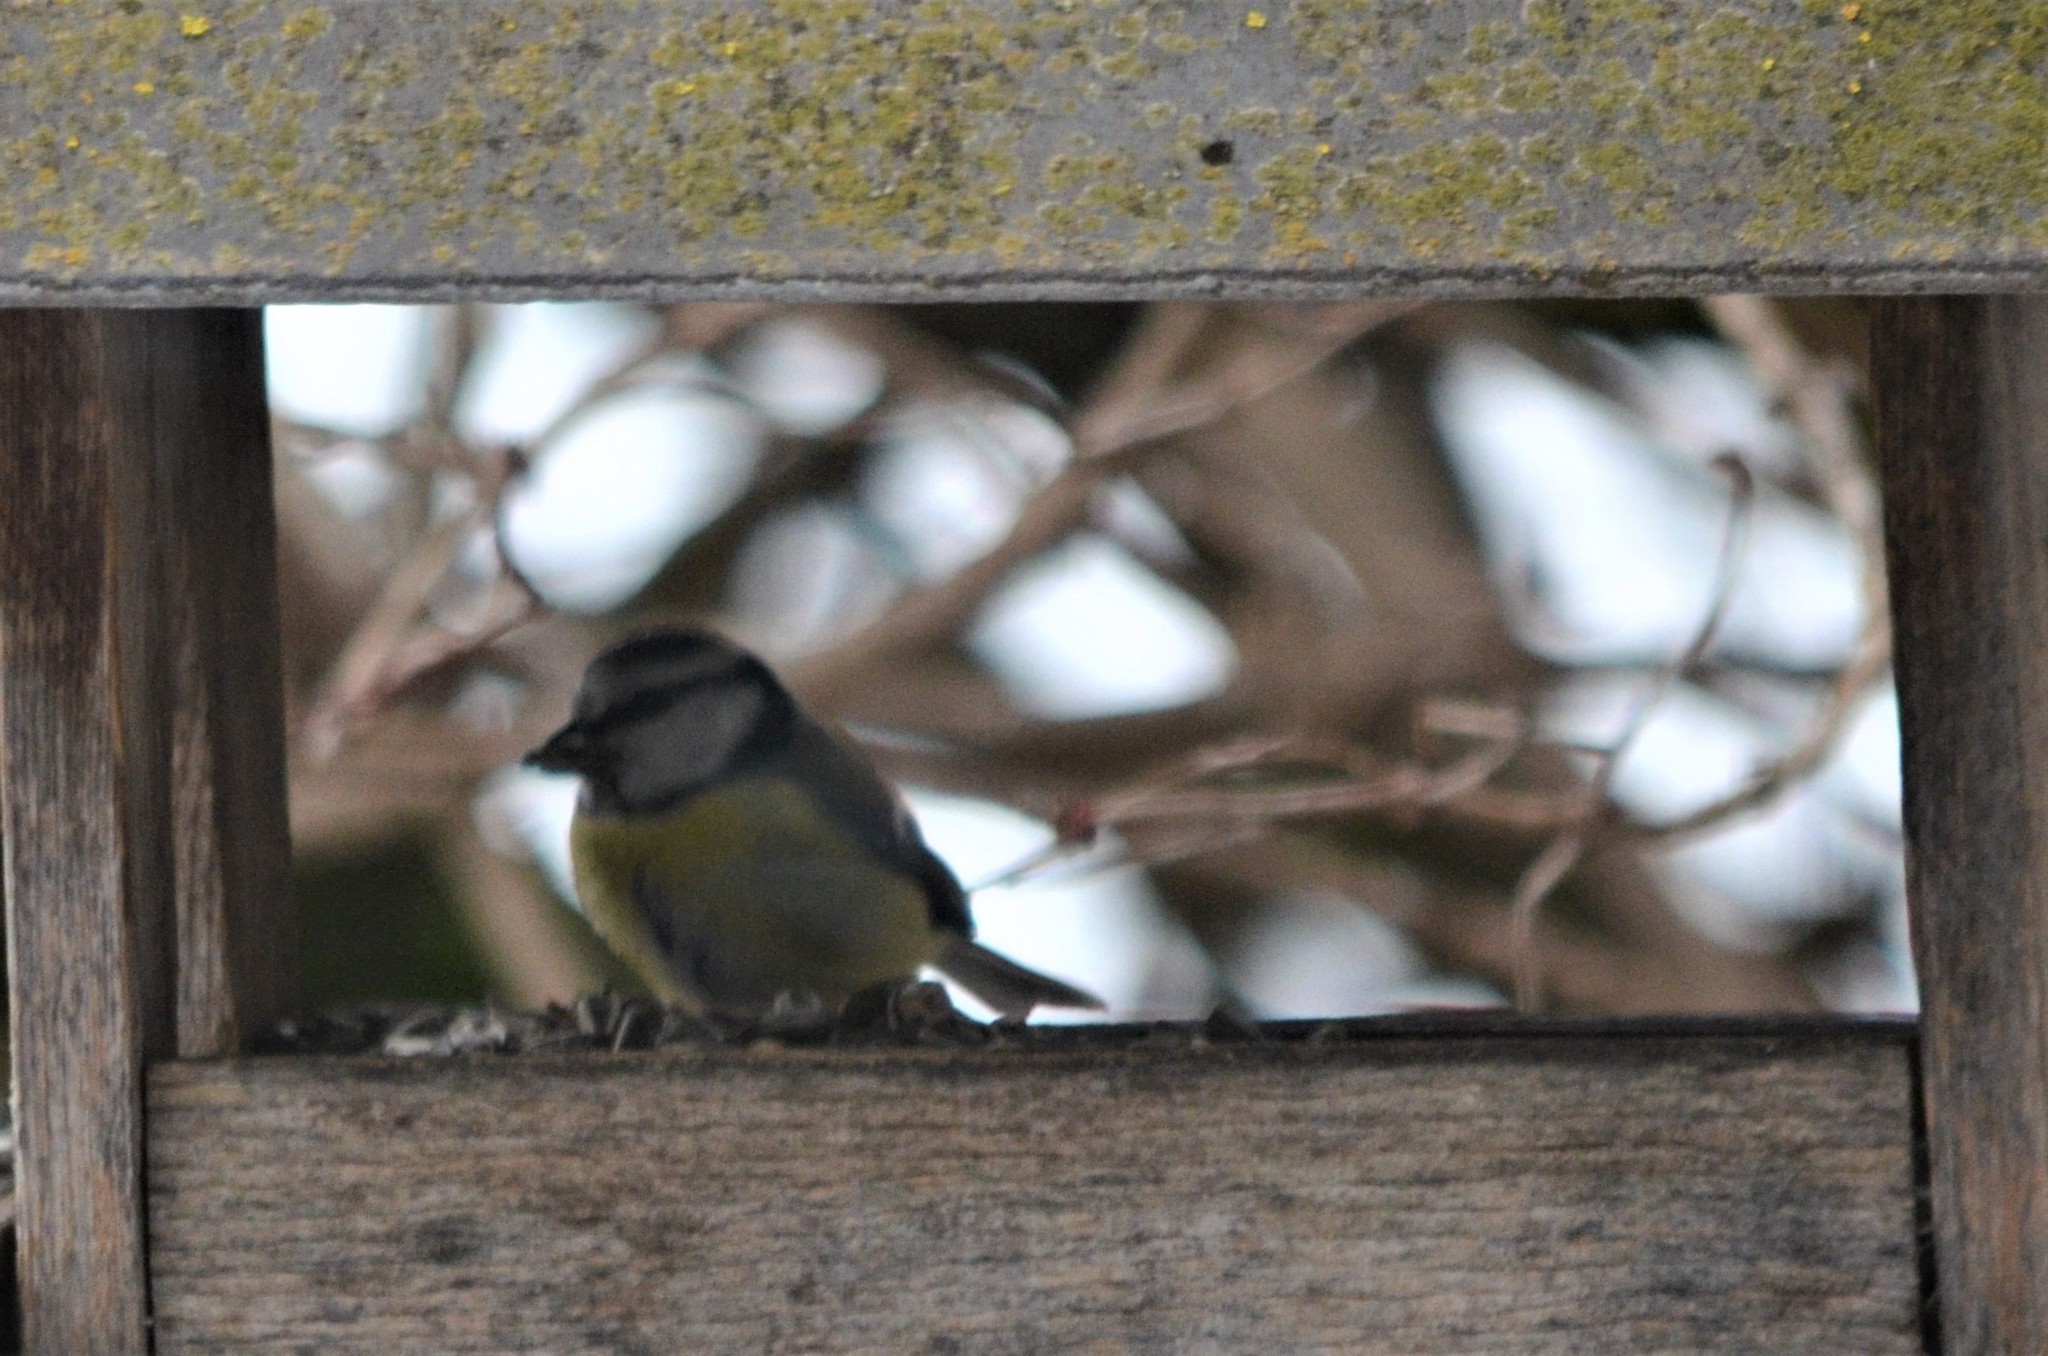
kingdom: Animalia
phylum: Chordata
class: Aves
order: Passeriformes
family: Paridae
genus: Cyanistes
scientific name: Cyanistes caeruleus
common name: Eurasian blue tit
